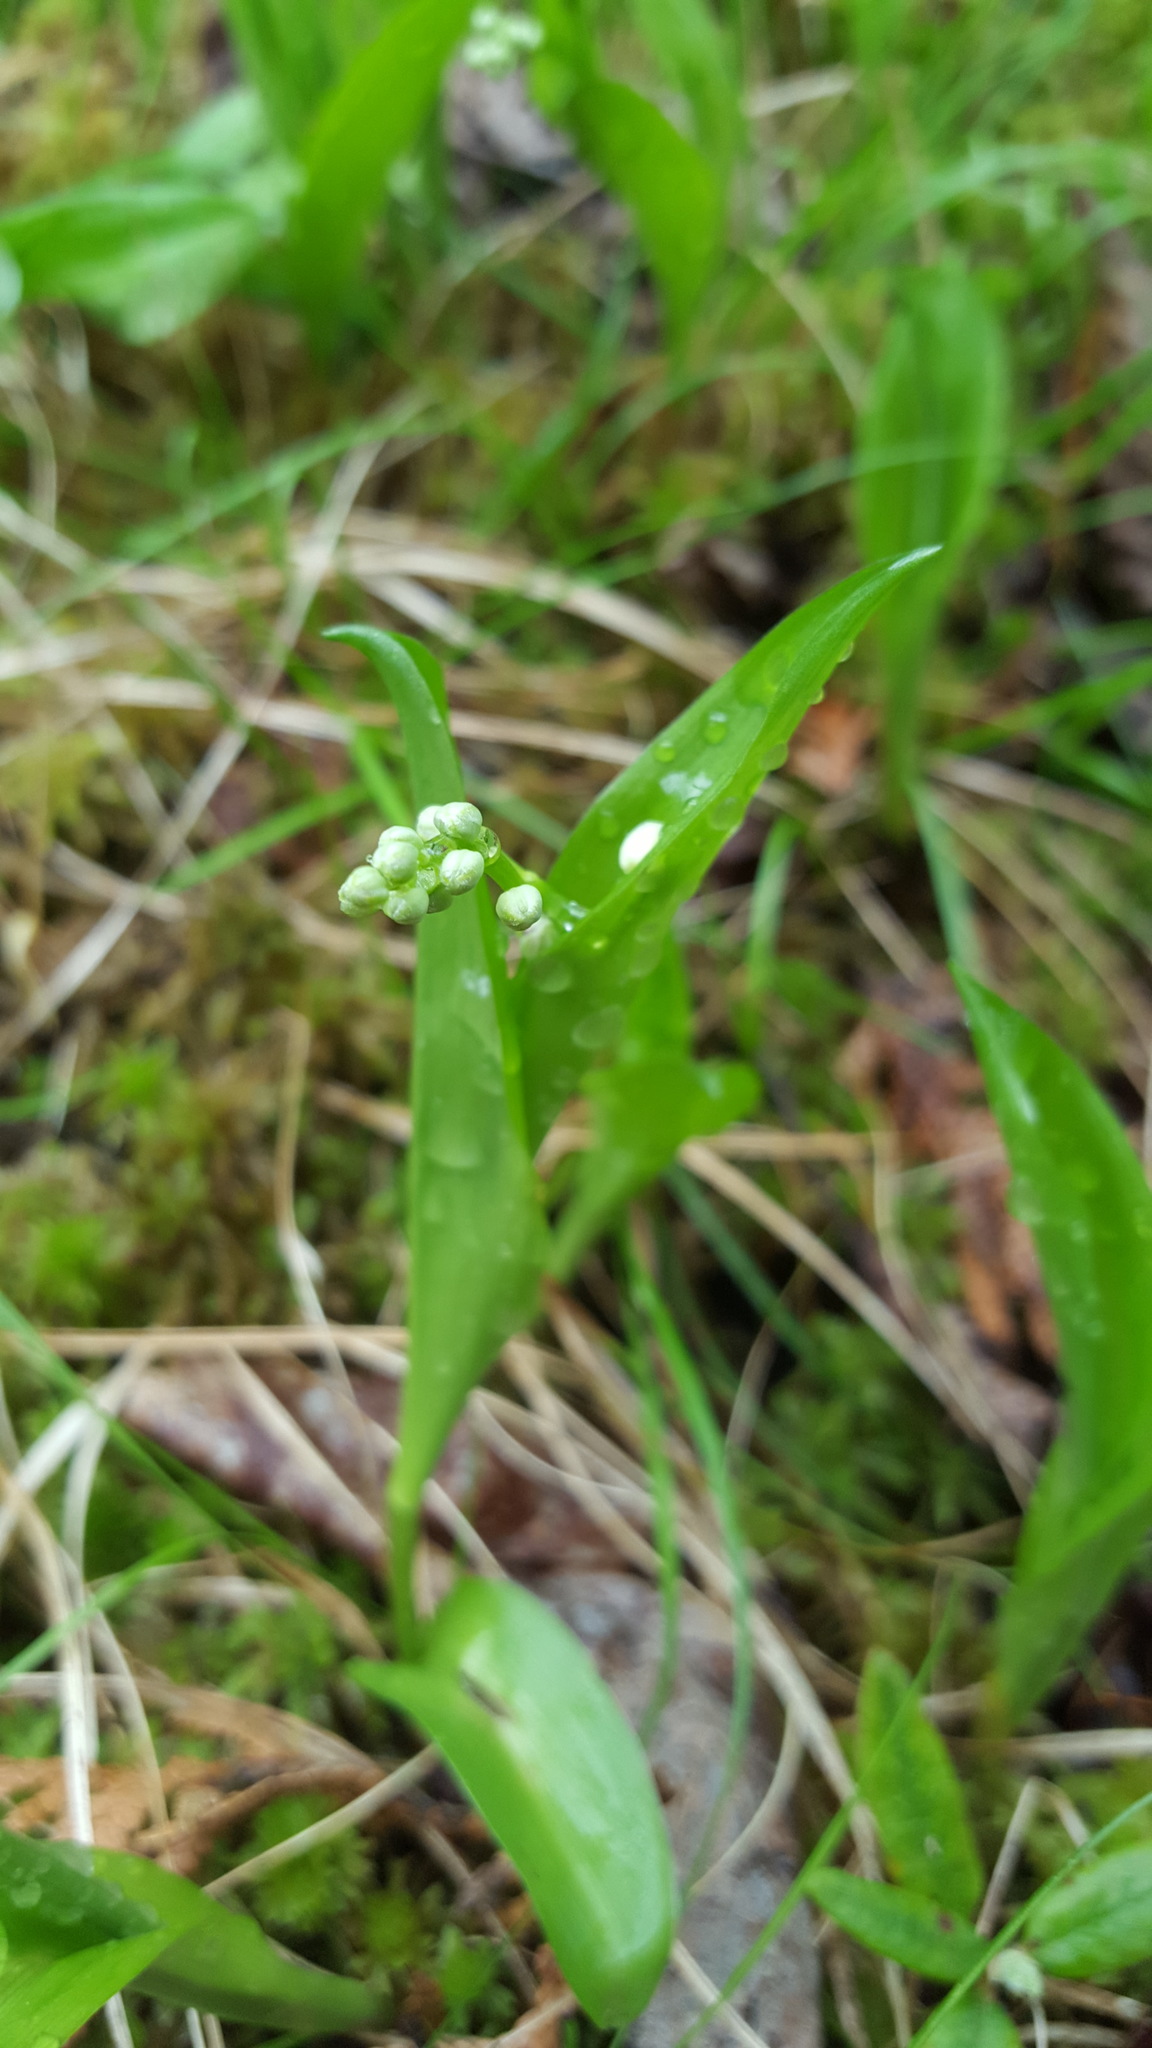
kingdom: Plantae
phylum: Tracheophyta
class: Liliopsida
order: Asparagales
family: Asparagaceae
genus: Maianthemum
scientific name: Maianthemum trifolium
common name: Swamp false solomon's seal
